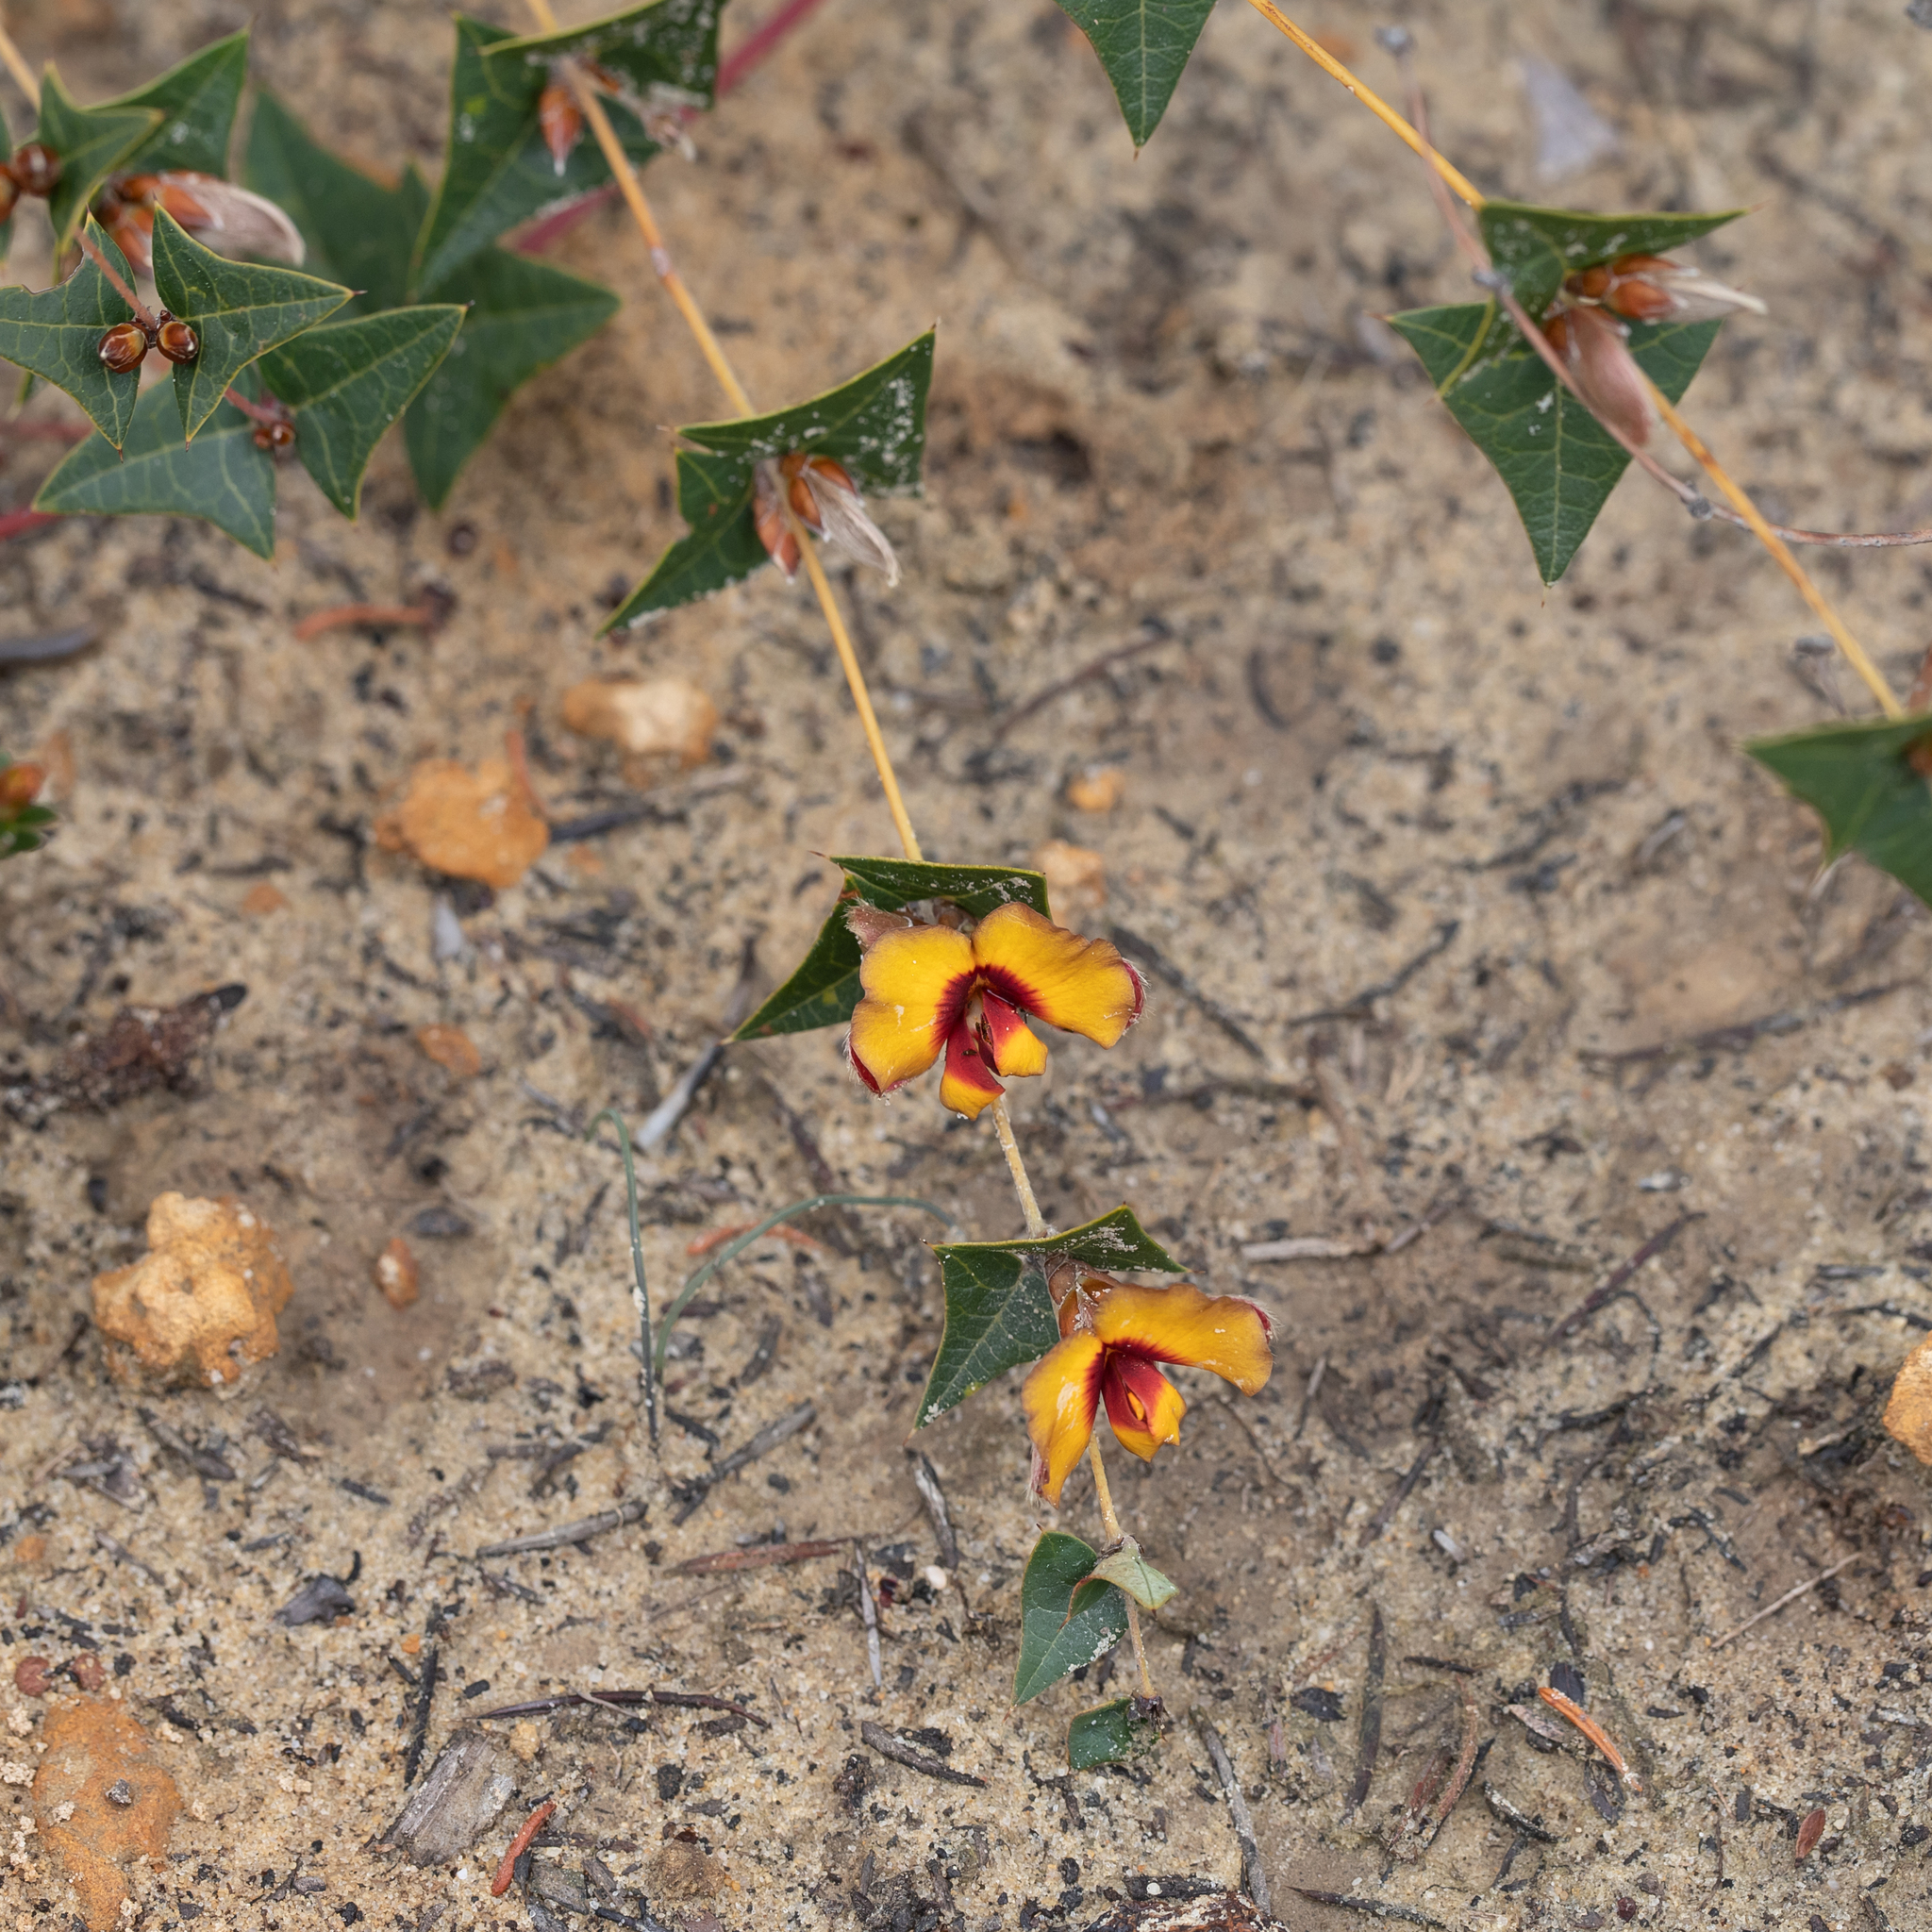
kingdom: Plantae
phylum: Tracheophyta
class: Magnoliopsida
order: Fabales
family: Fabaceae
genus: Platylobium
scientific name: Platylobium obtusangulum
